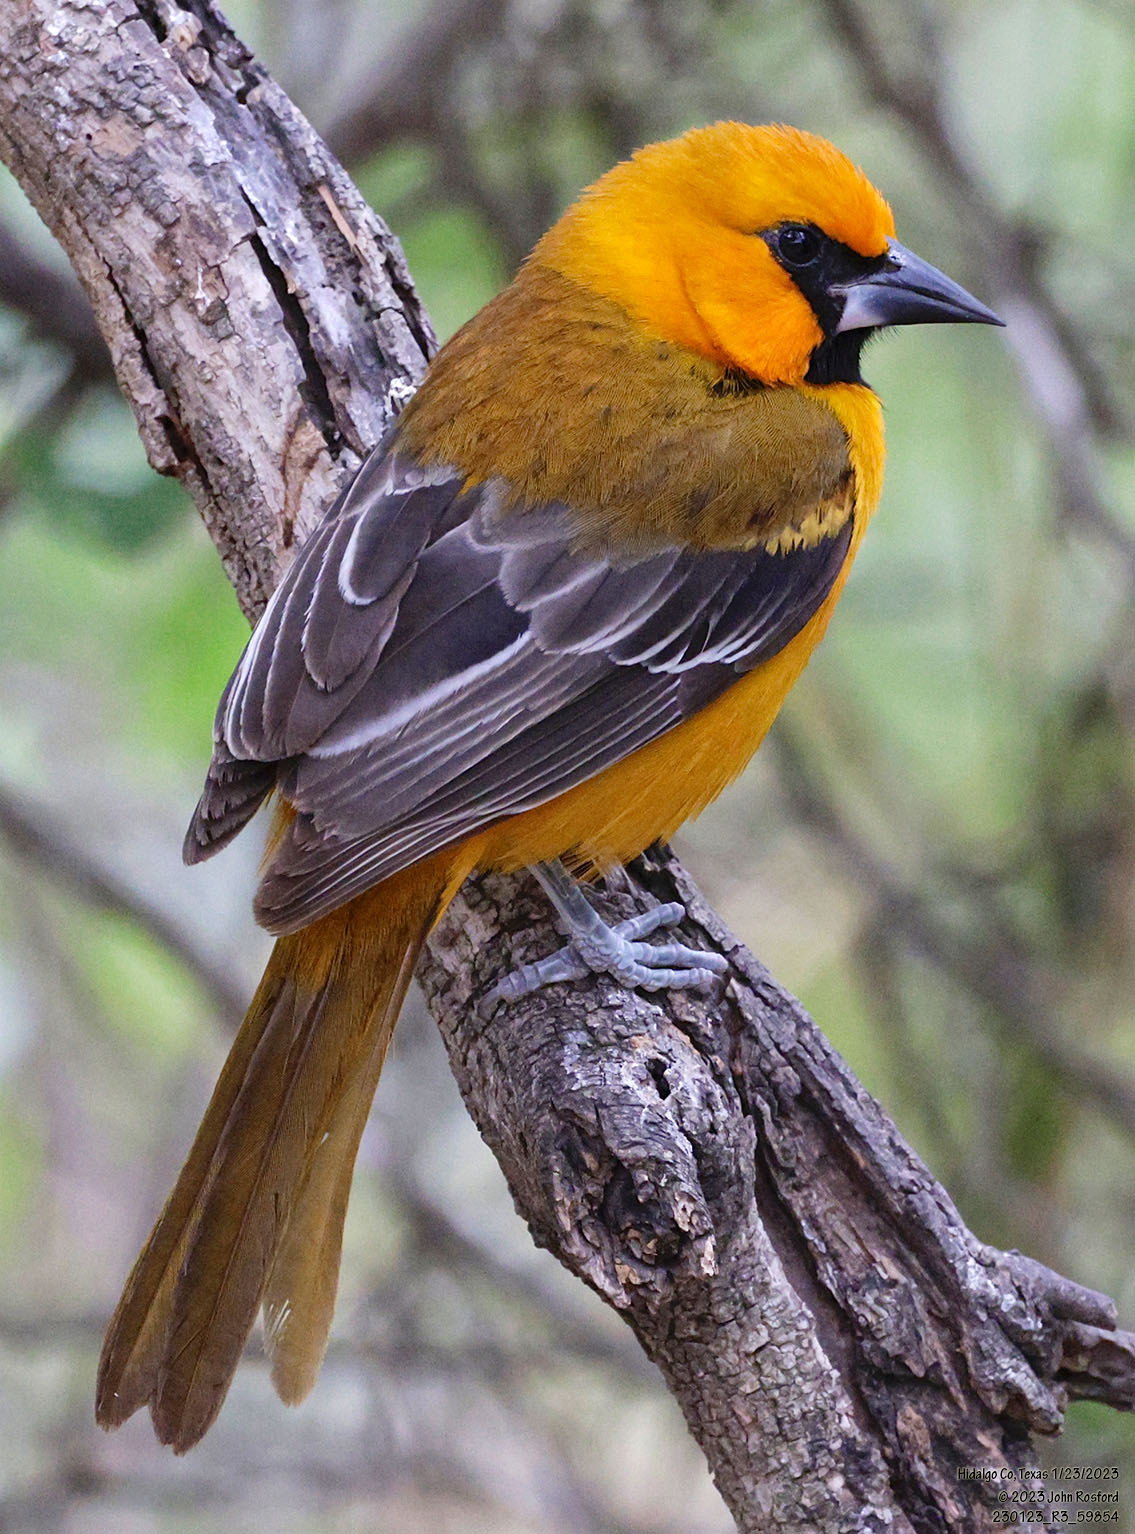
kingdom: Animalia
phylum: Chordata
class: Aves
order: Passeriformes
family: Icteridae
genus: Icterus
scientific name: Icterus gularis
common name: Altamira oriole
